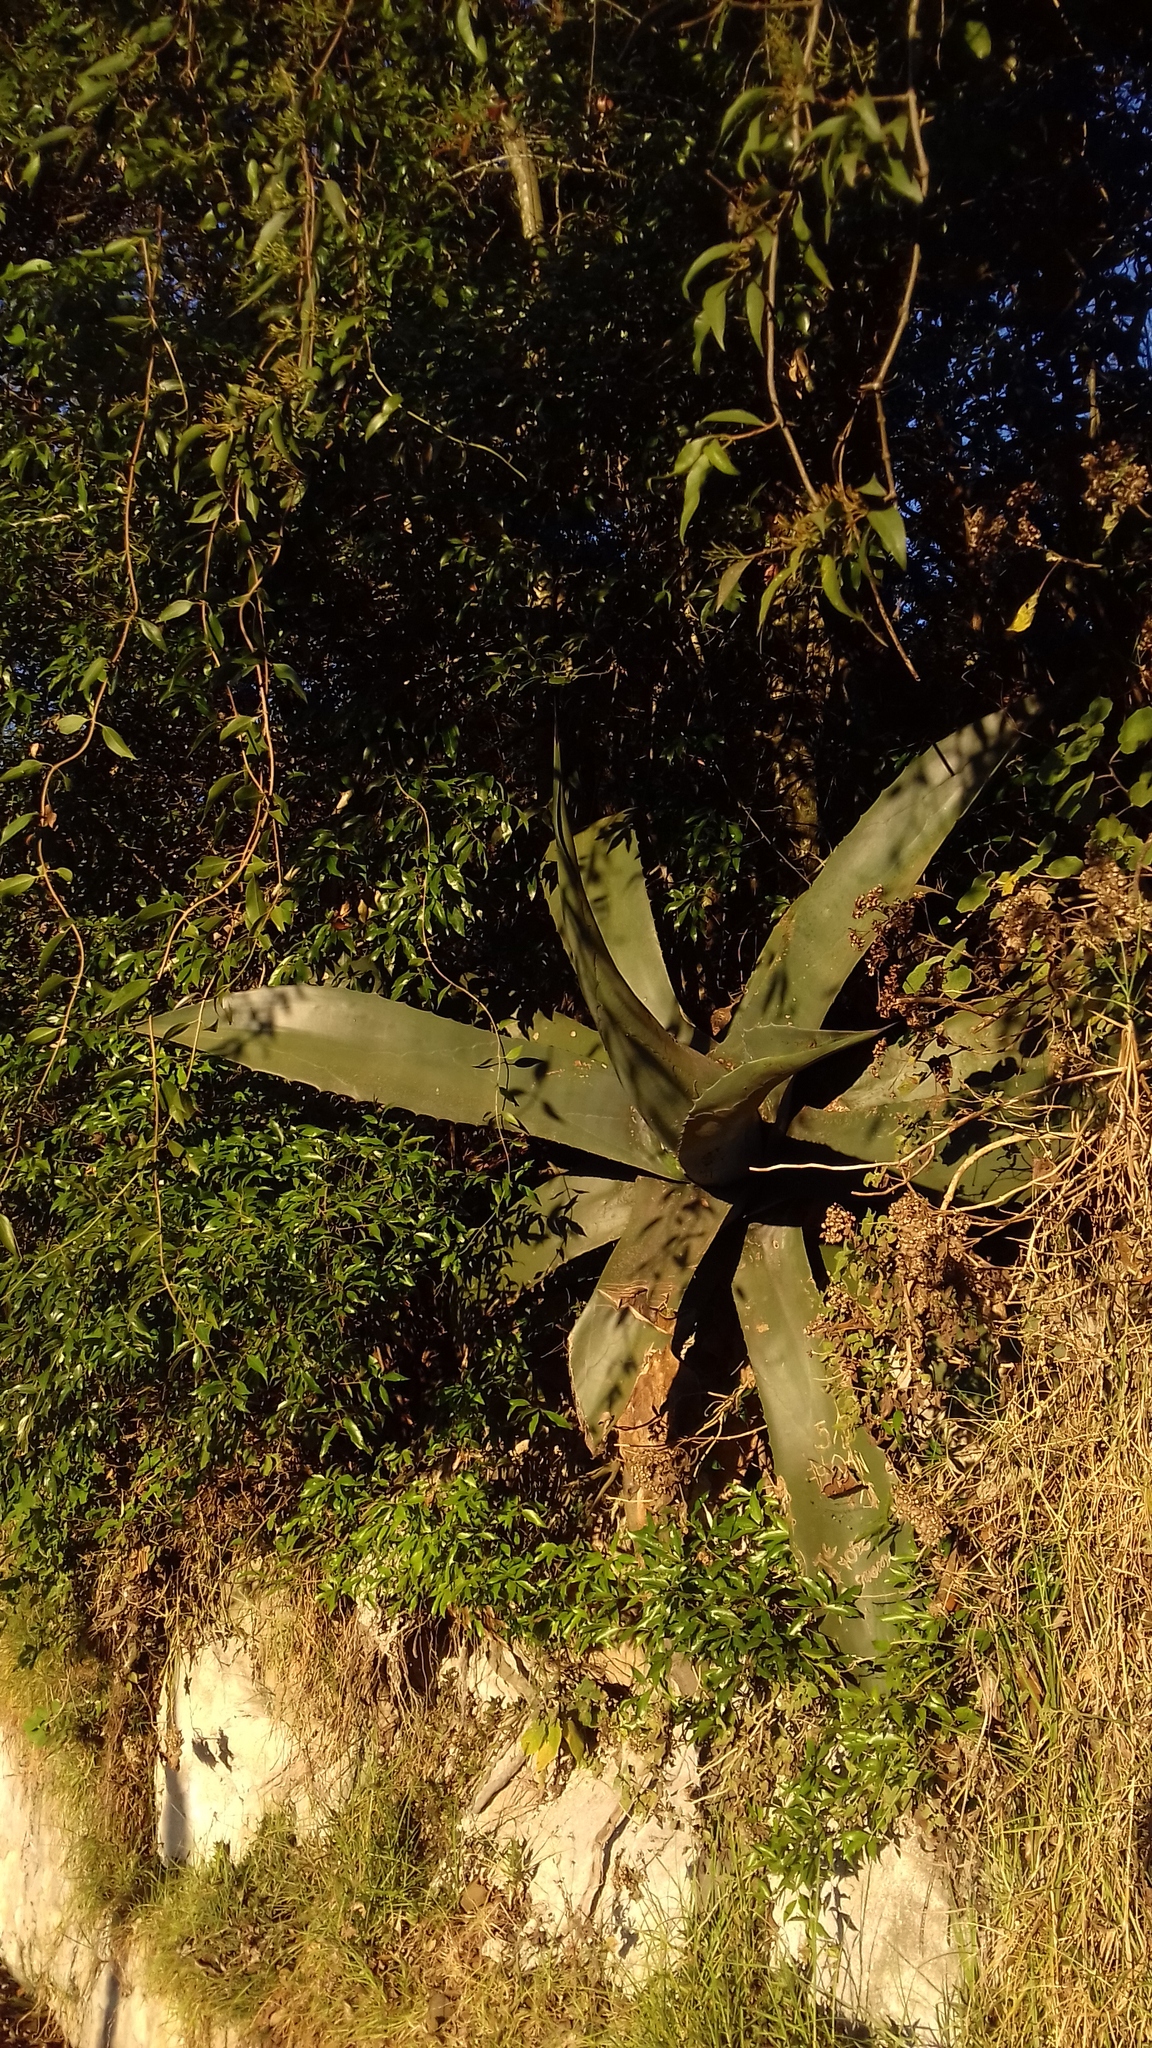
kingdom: Plantae
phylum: Tracheophyta
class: Liliopsida
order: Asparagales
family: Asparagaceae
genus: Agave
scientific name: Agave salmiana
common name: Pulque agave
